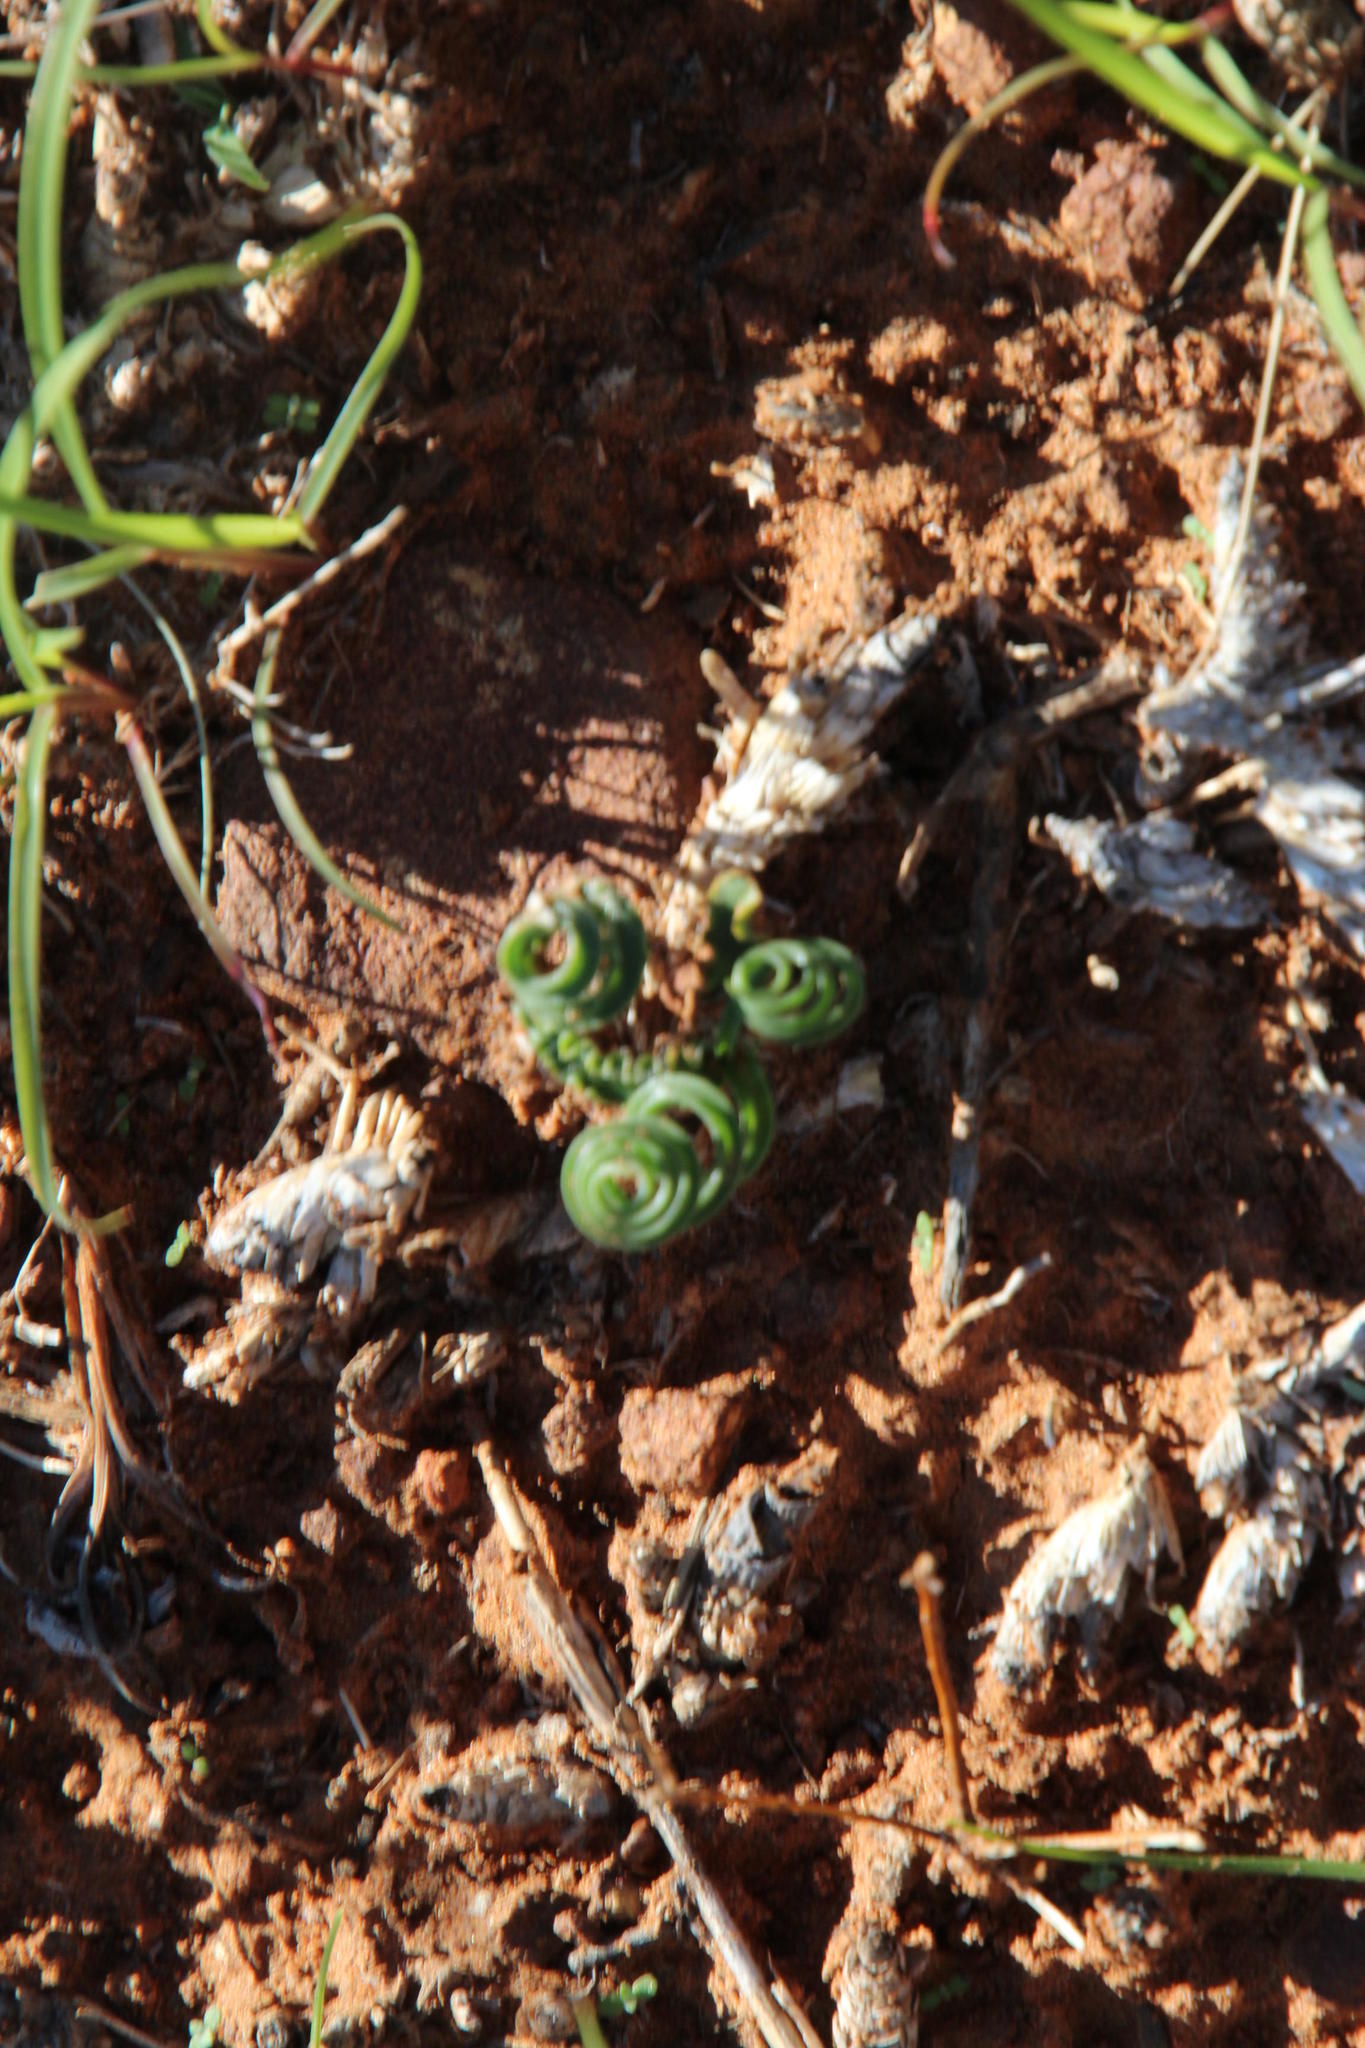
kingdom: Plantae
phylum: Tracheophyta
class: Liliopsida
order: Asparagales
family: Asparagaceae
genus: Dipcadi
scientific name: Dipcadi ciliare
